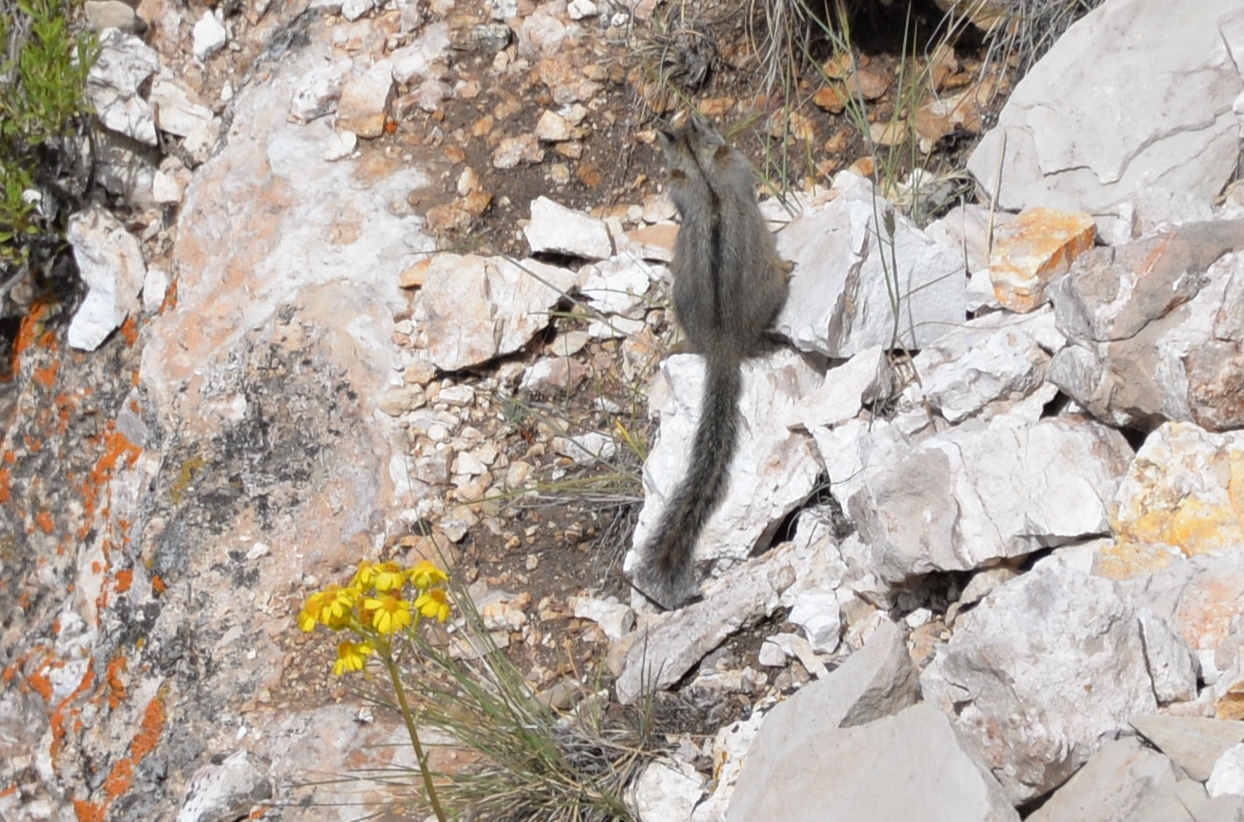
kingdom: Animalia
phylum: Chordata
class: Mammalia
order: Rodentia
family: Sciuridae
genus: Tamias
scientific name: Tamias dorsalis
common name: Cliff chipmunk
